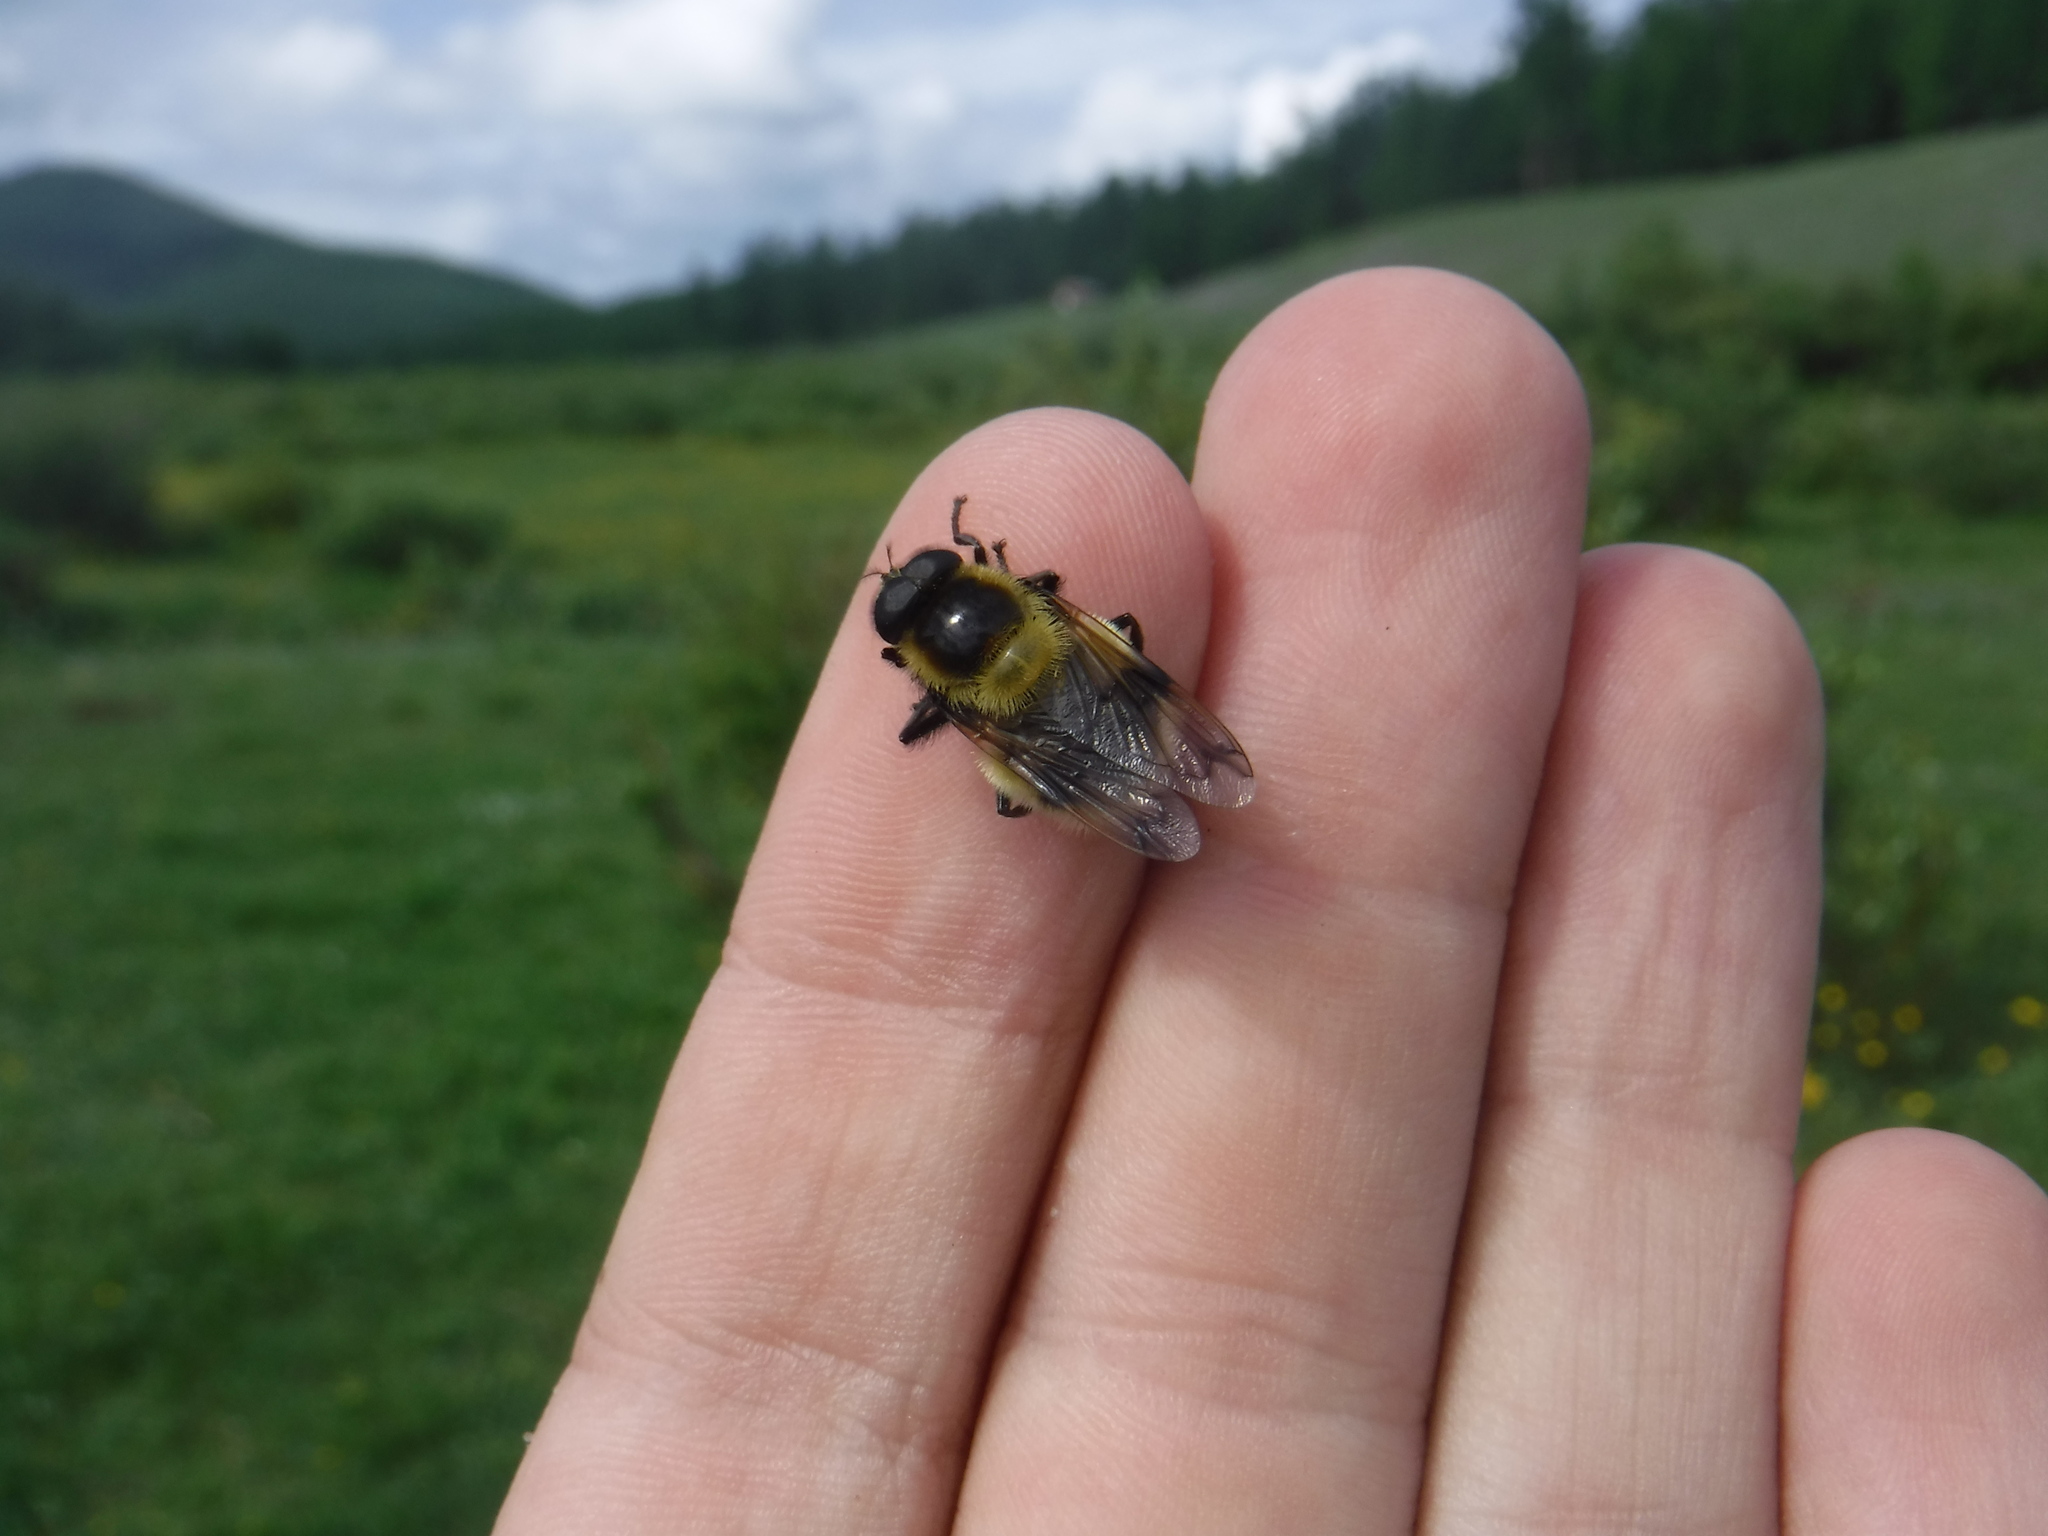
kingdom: Animalia
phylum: Arthropoda
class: Insecta
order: Diptera
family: Syrphidae
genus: Volucella
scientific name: Volucella bombylans
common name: Bumble bee hover fly
